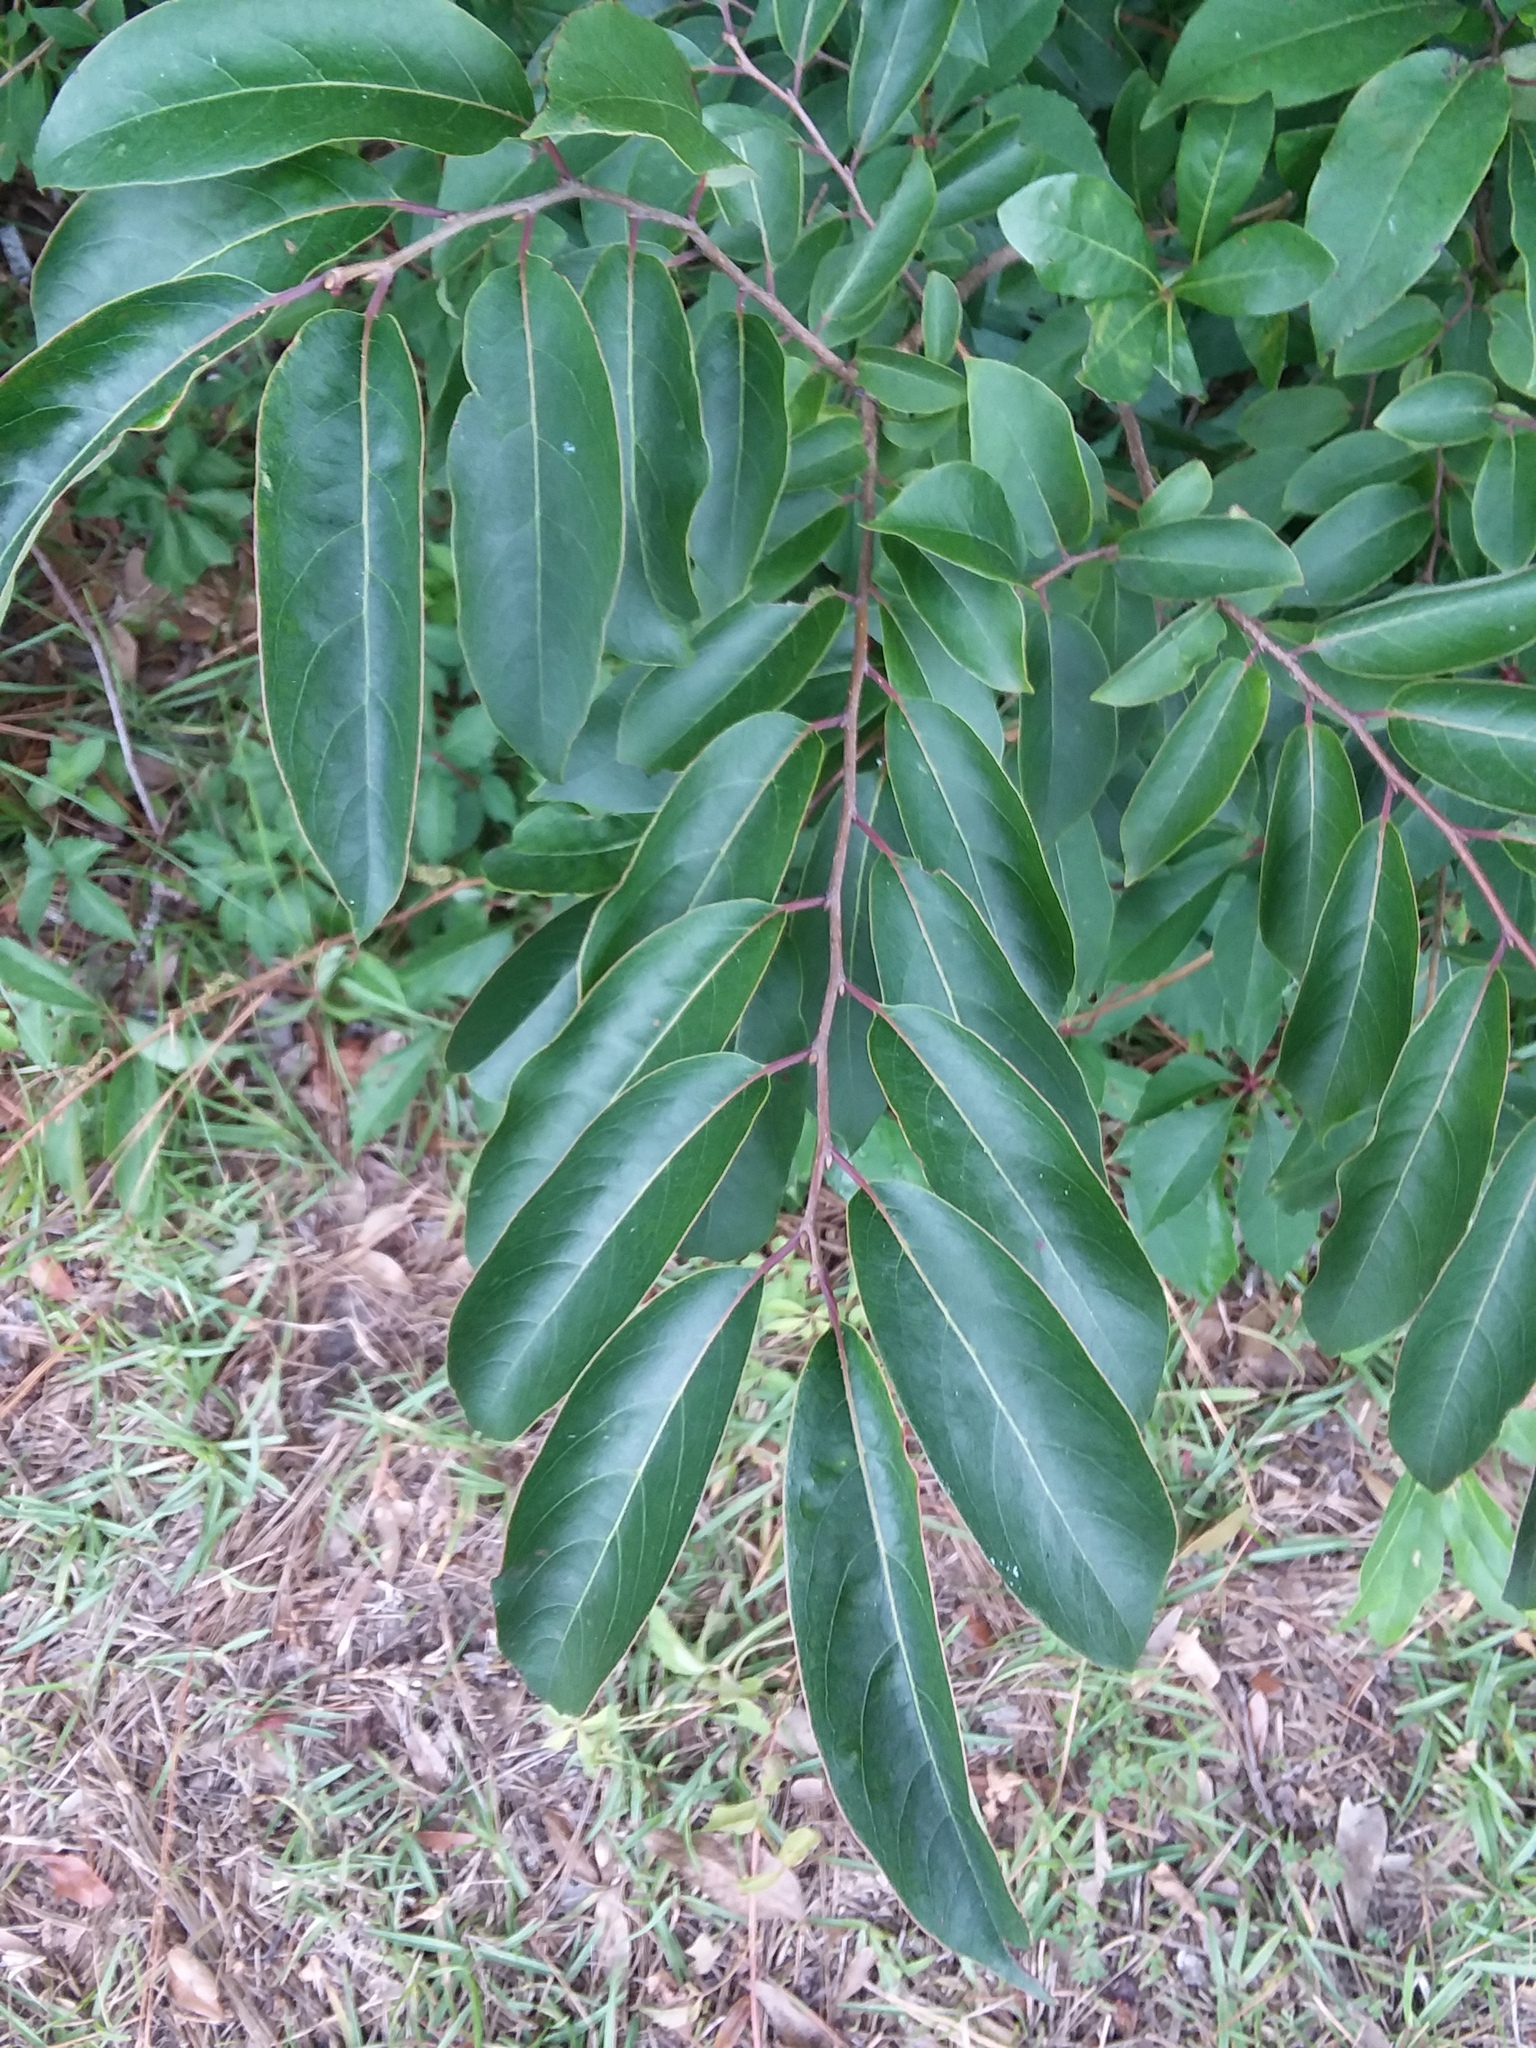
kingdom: Plantae
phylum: Tracheophyta
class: Magnoliopsida
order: Ericales
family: Ebenaceae
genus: Diospyros
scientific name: Diospyros virginiana
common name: Persimmon
